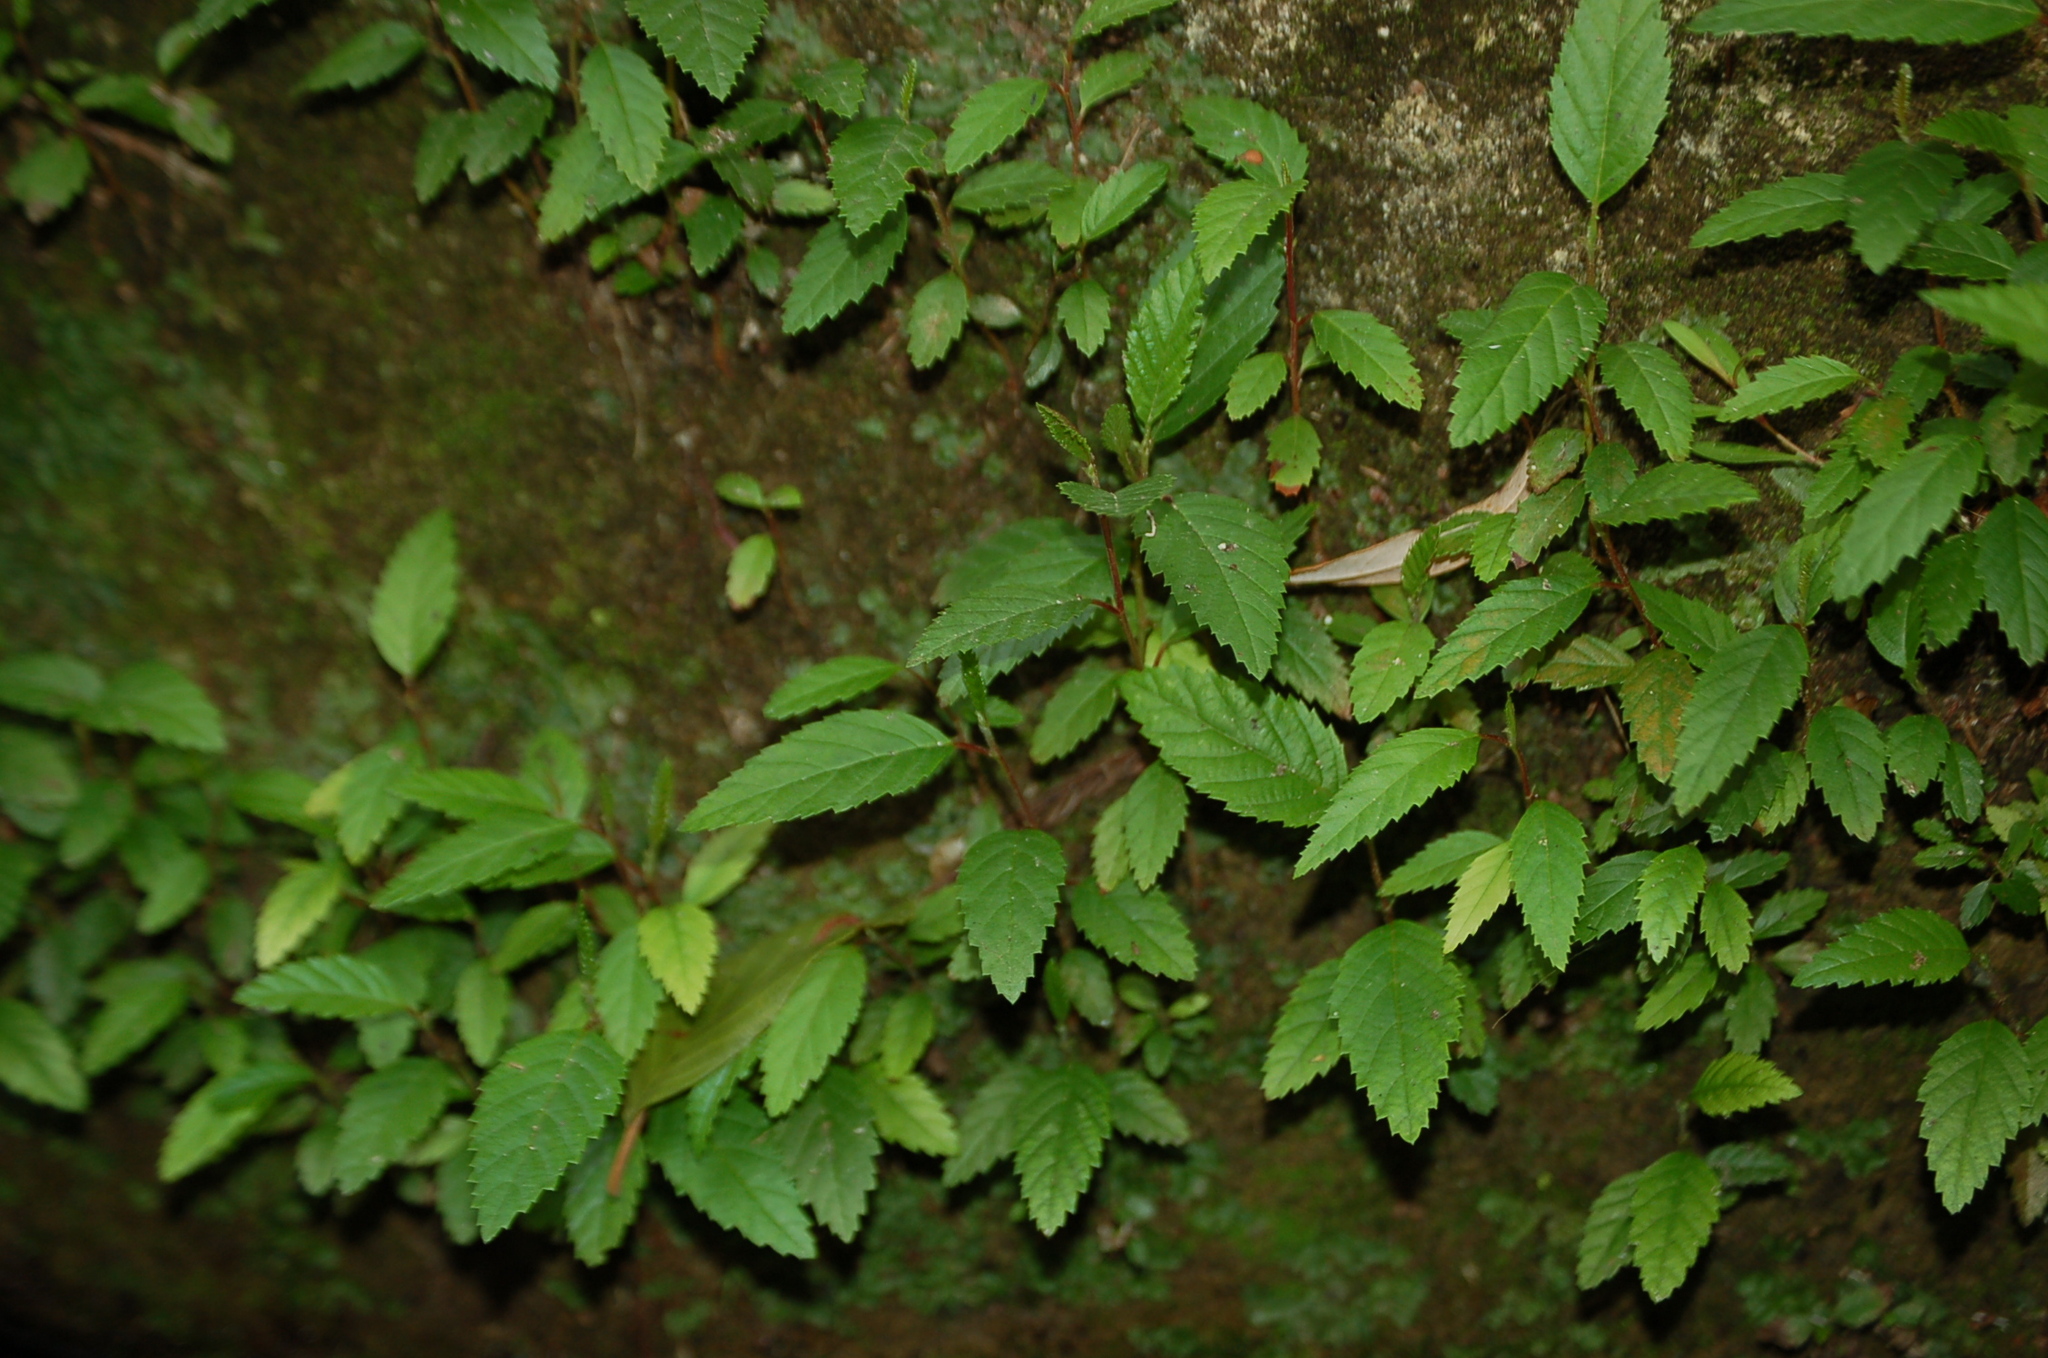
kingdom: Plantae
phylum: Tracheophyta
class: Magnoliopsida
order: Fagales
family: Betulaceae
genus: Alnus
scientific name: Alnus acuminata
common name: Alder
